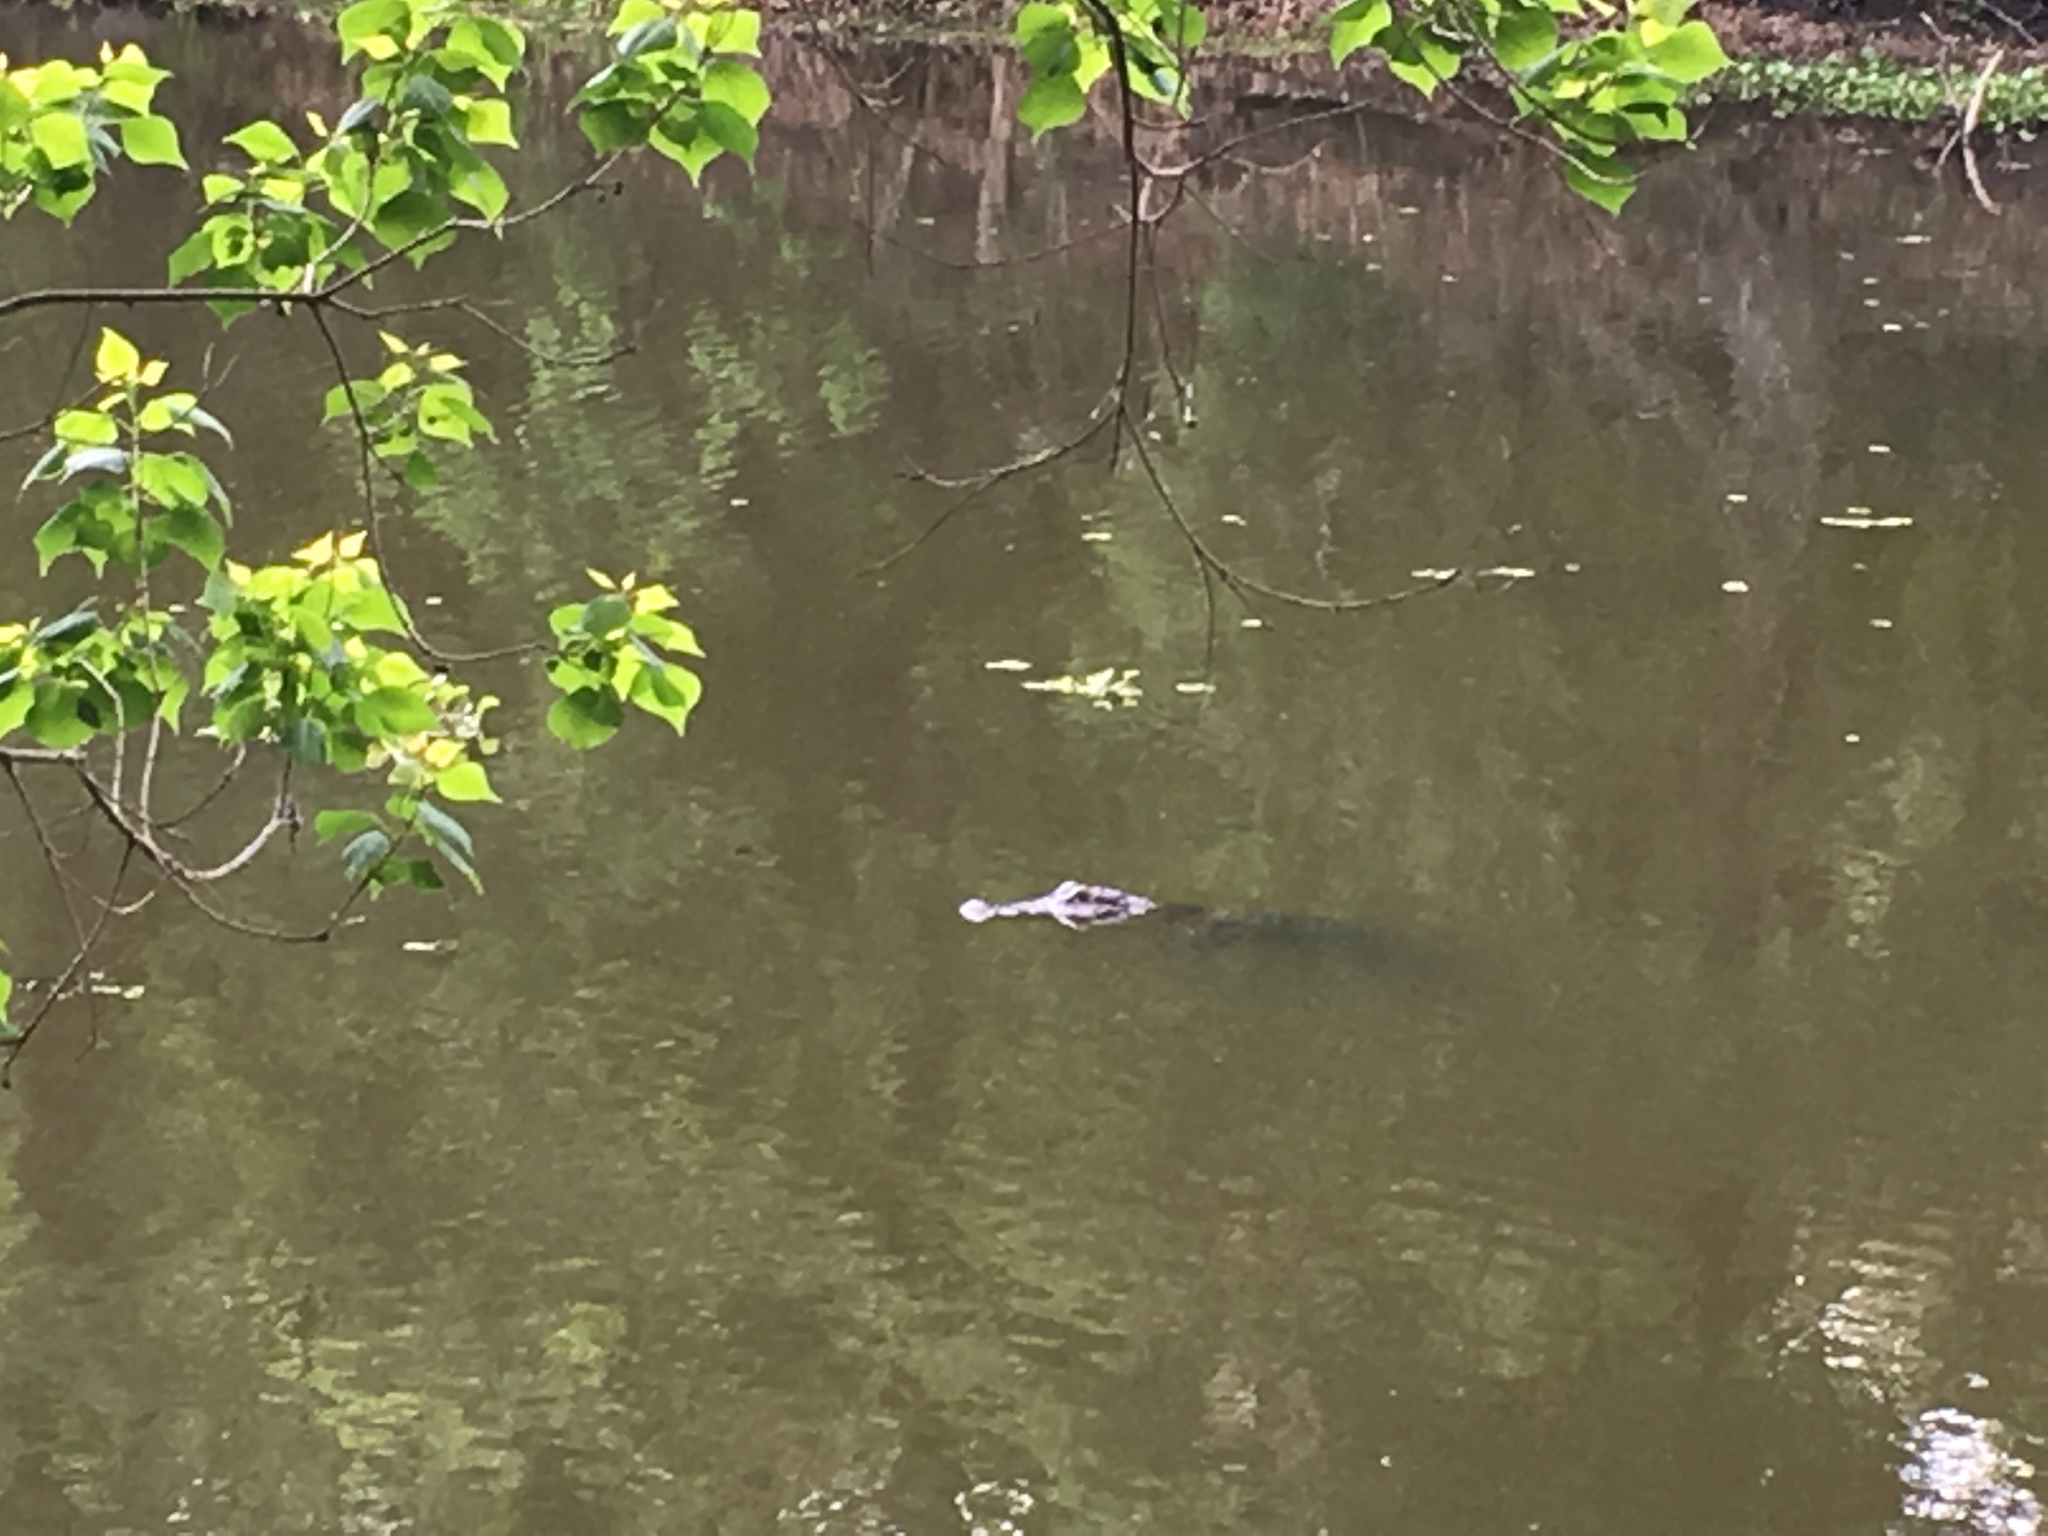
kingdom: Animalia
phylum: Chordata
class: Crocodylia
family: Alligatoridae
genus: Alligator
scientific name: Alligator mississippiensis
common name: American alligator
